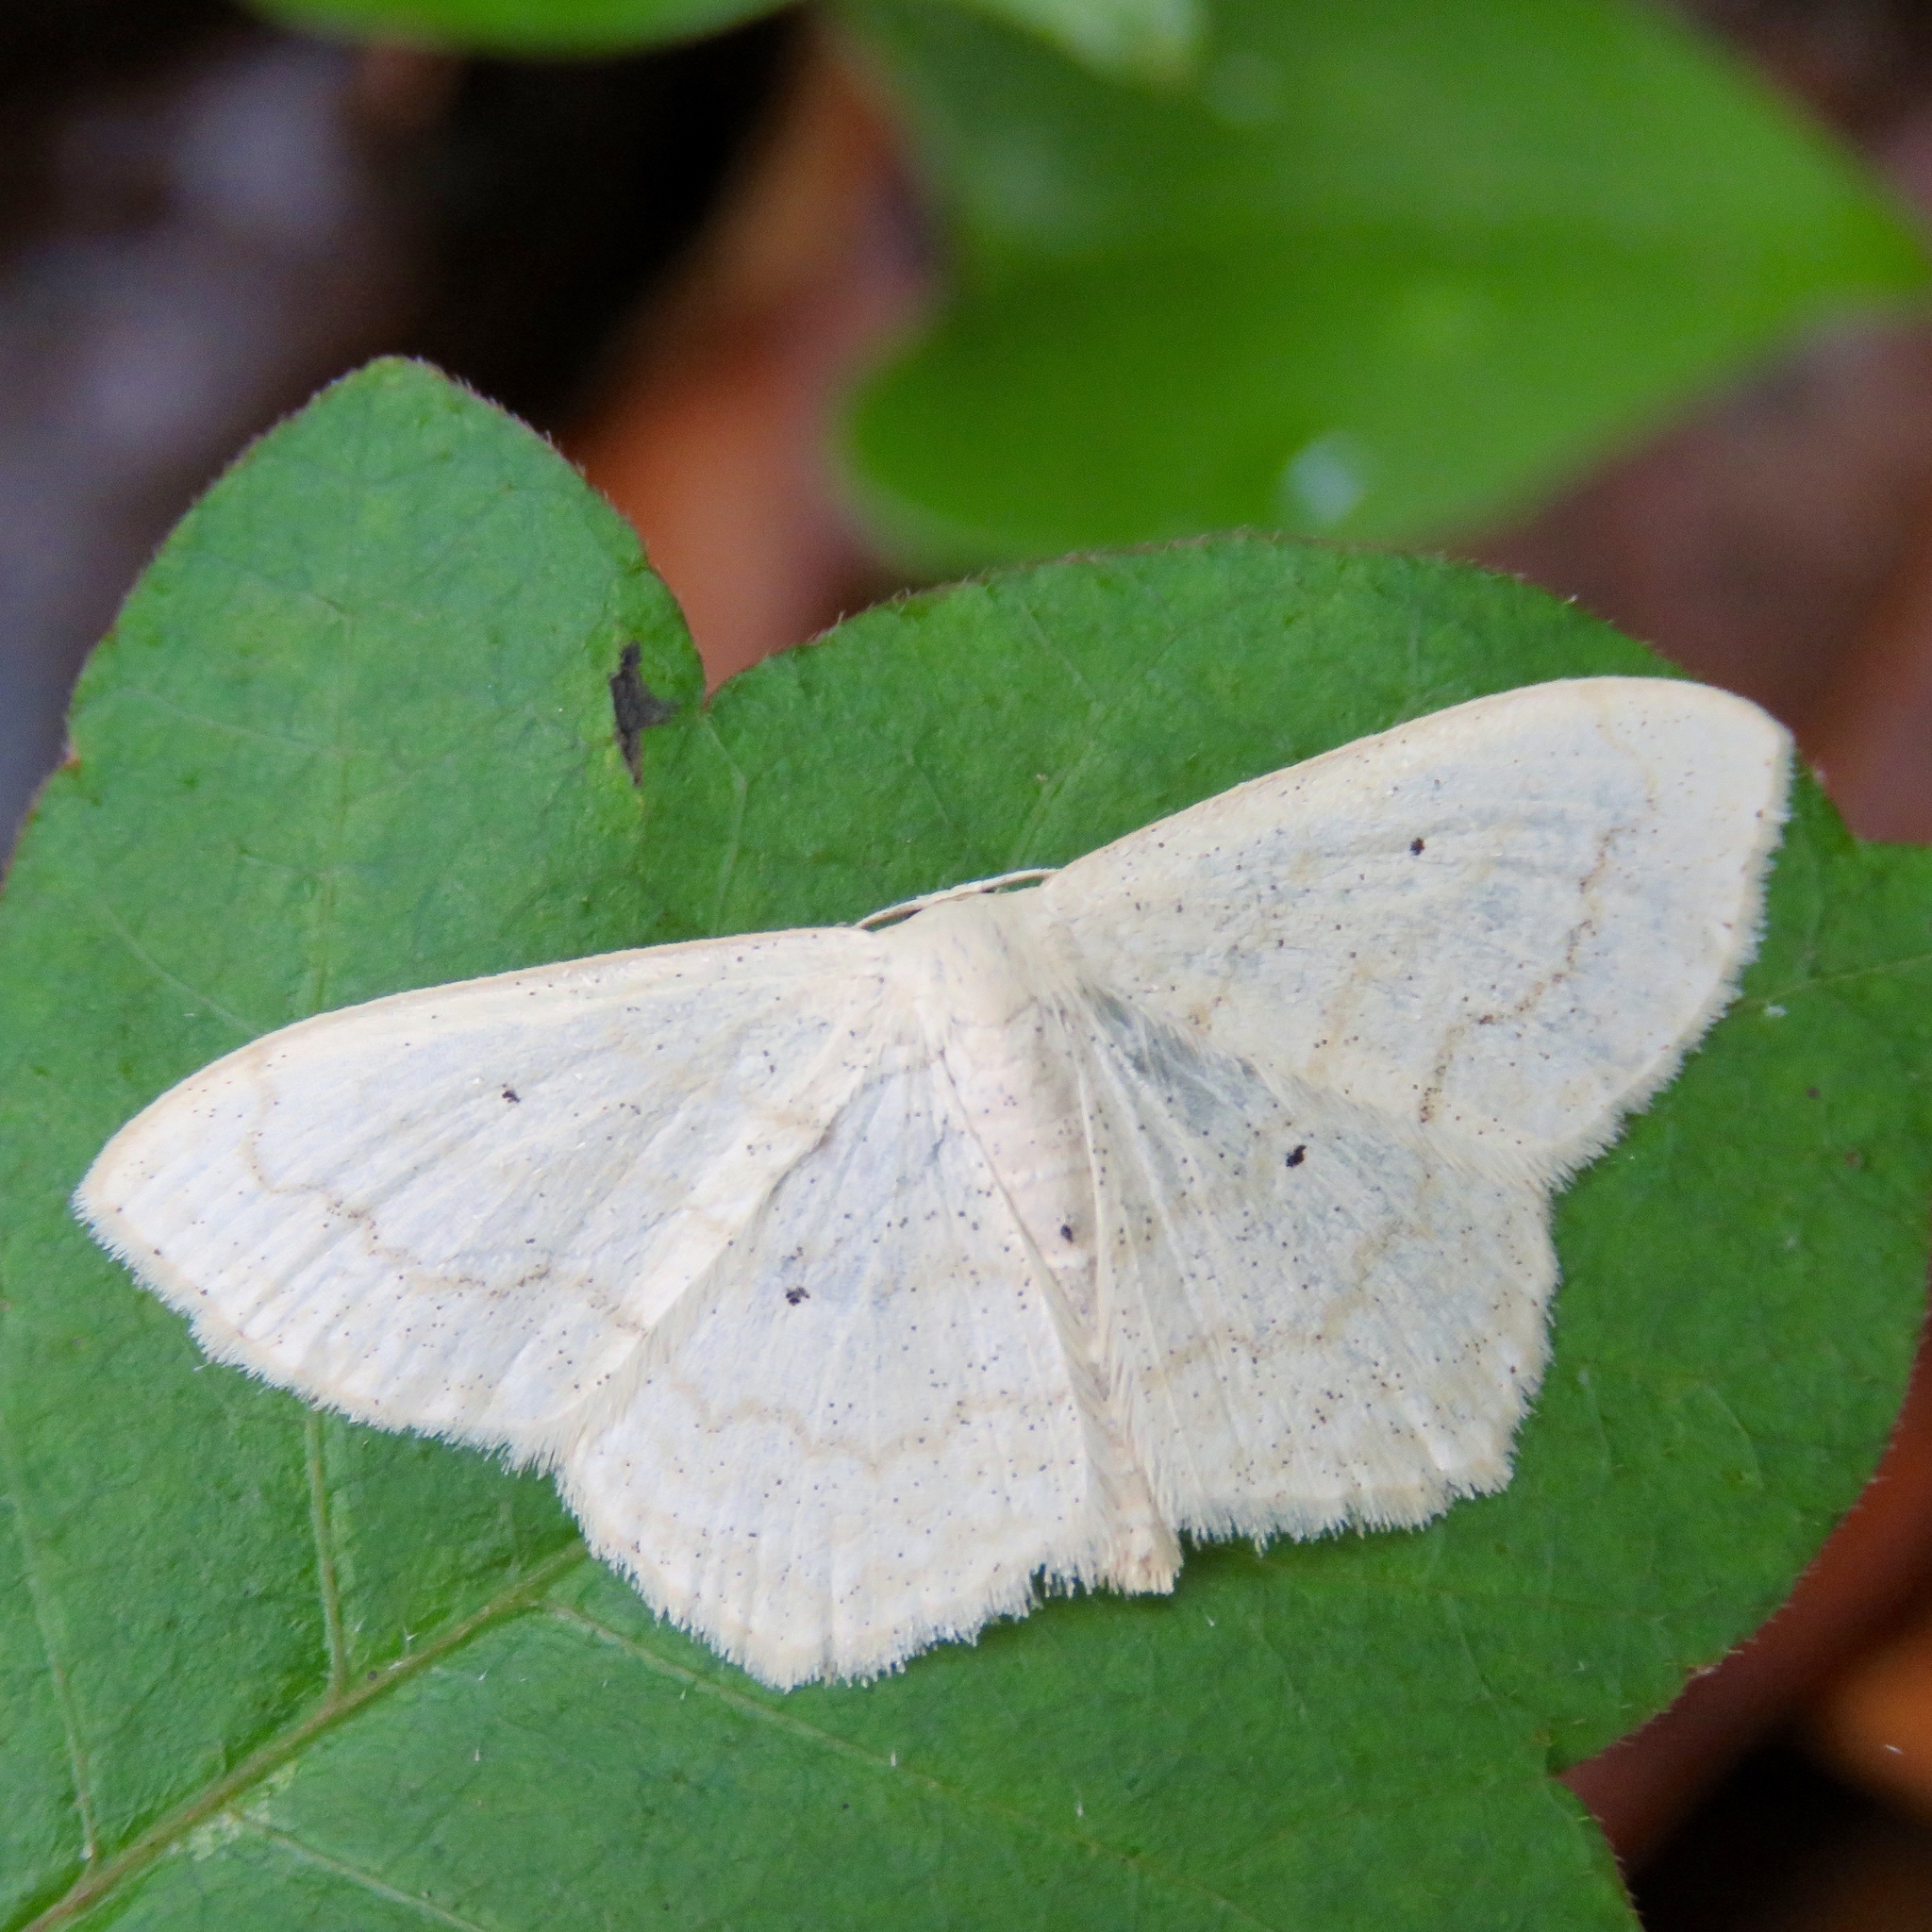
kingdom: Animalia
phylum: Arthropoda
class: Insecta
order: Lepidoptera
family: Geometridae
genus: Idaea
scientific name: Idaea tacturata
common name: Dot-lined wave
